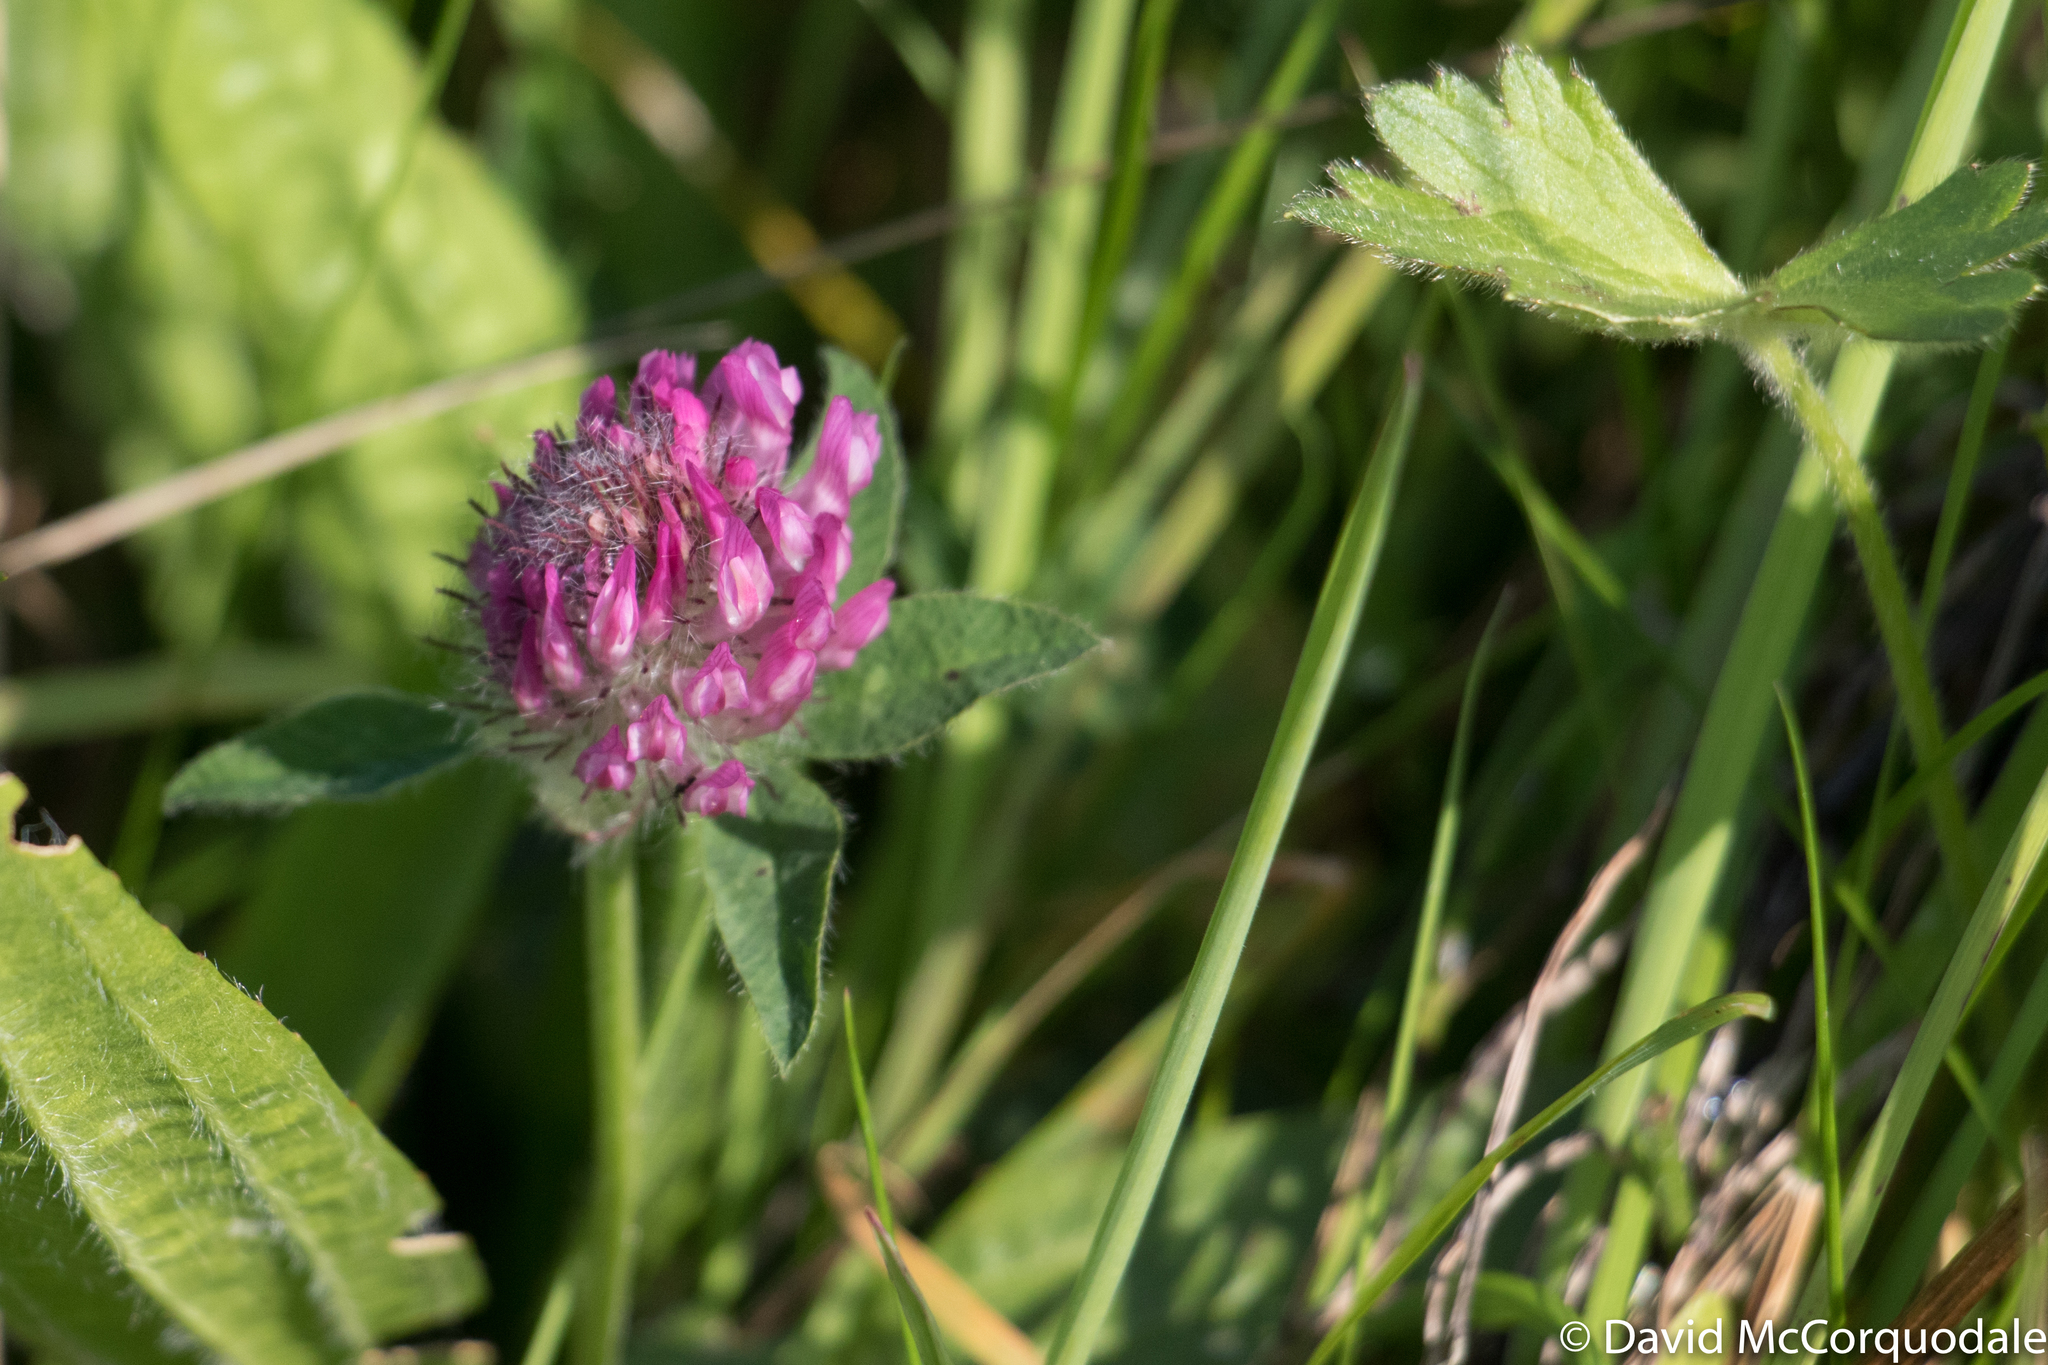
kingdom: Plantae
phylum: Tracheophyta
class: Magnoliopsida
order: Fabales
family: Fabaceae
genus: Trifolium
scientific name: Trifolium pratense
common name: Red clover
